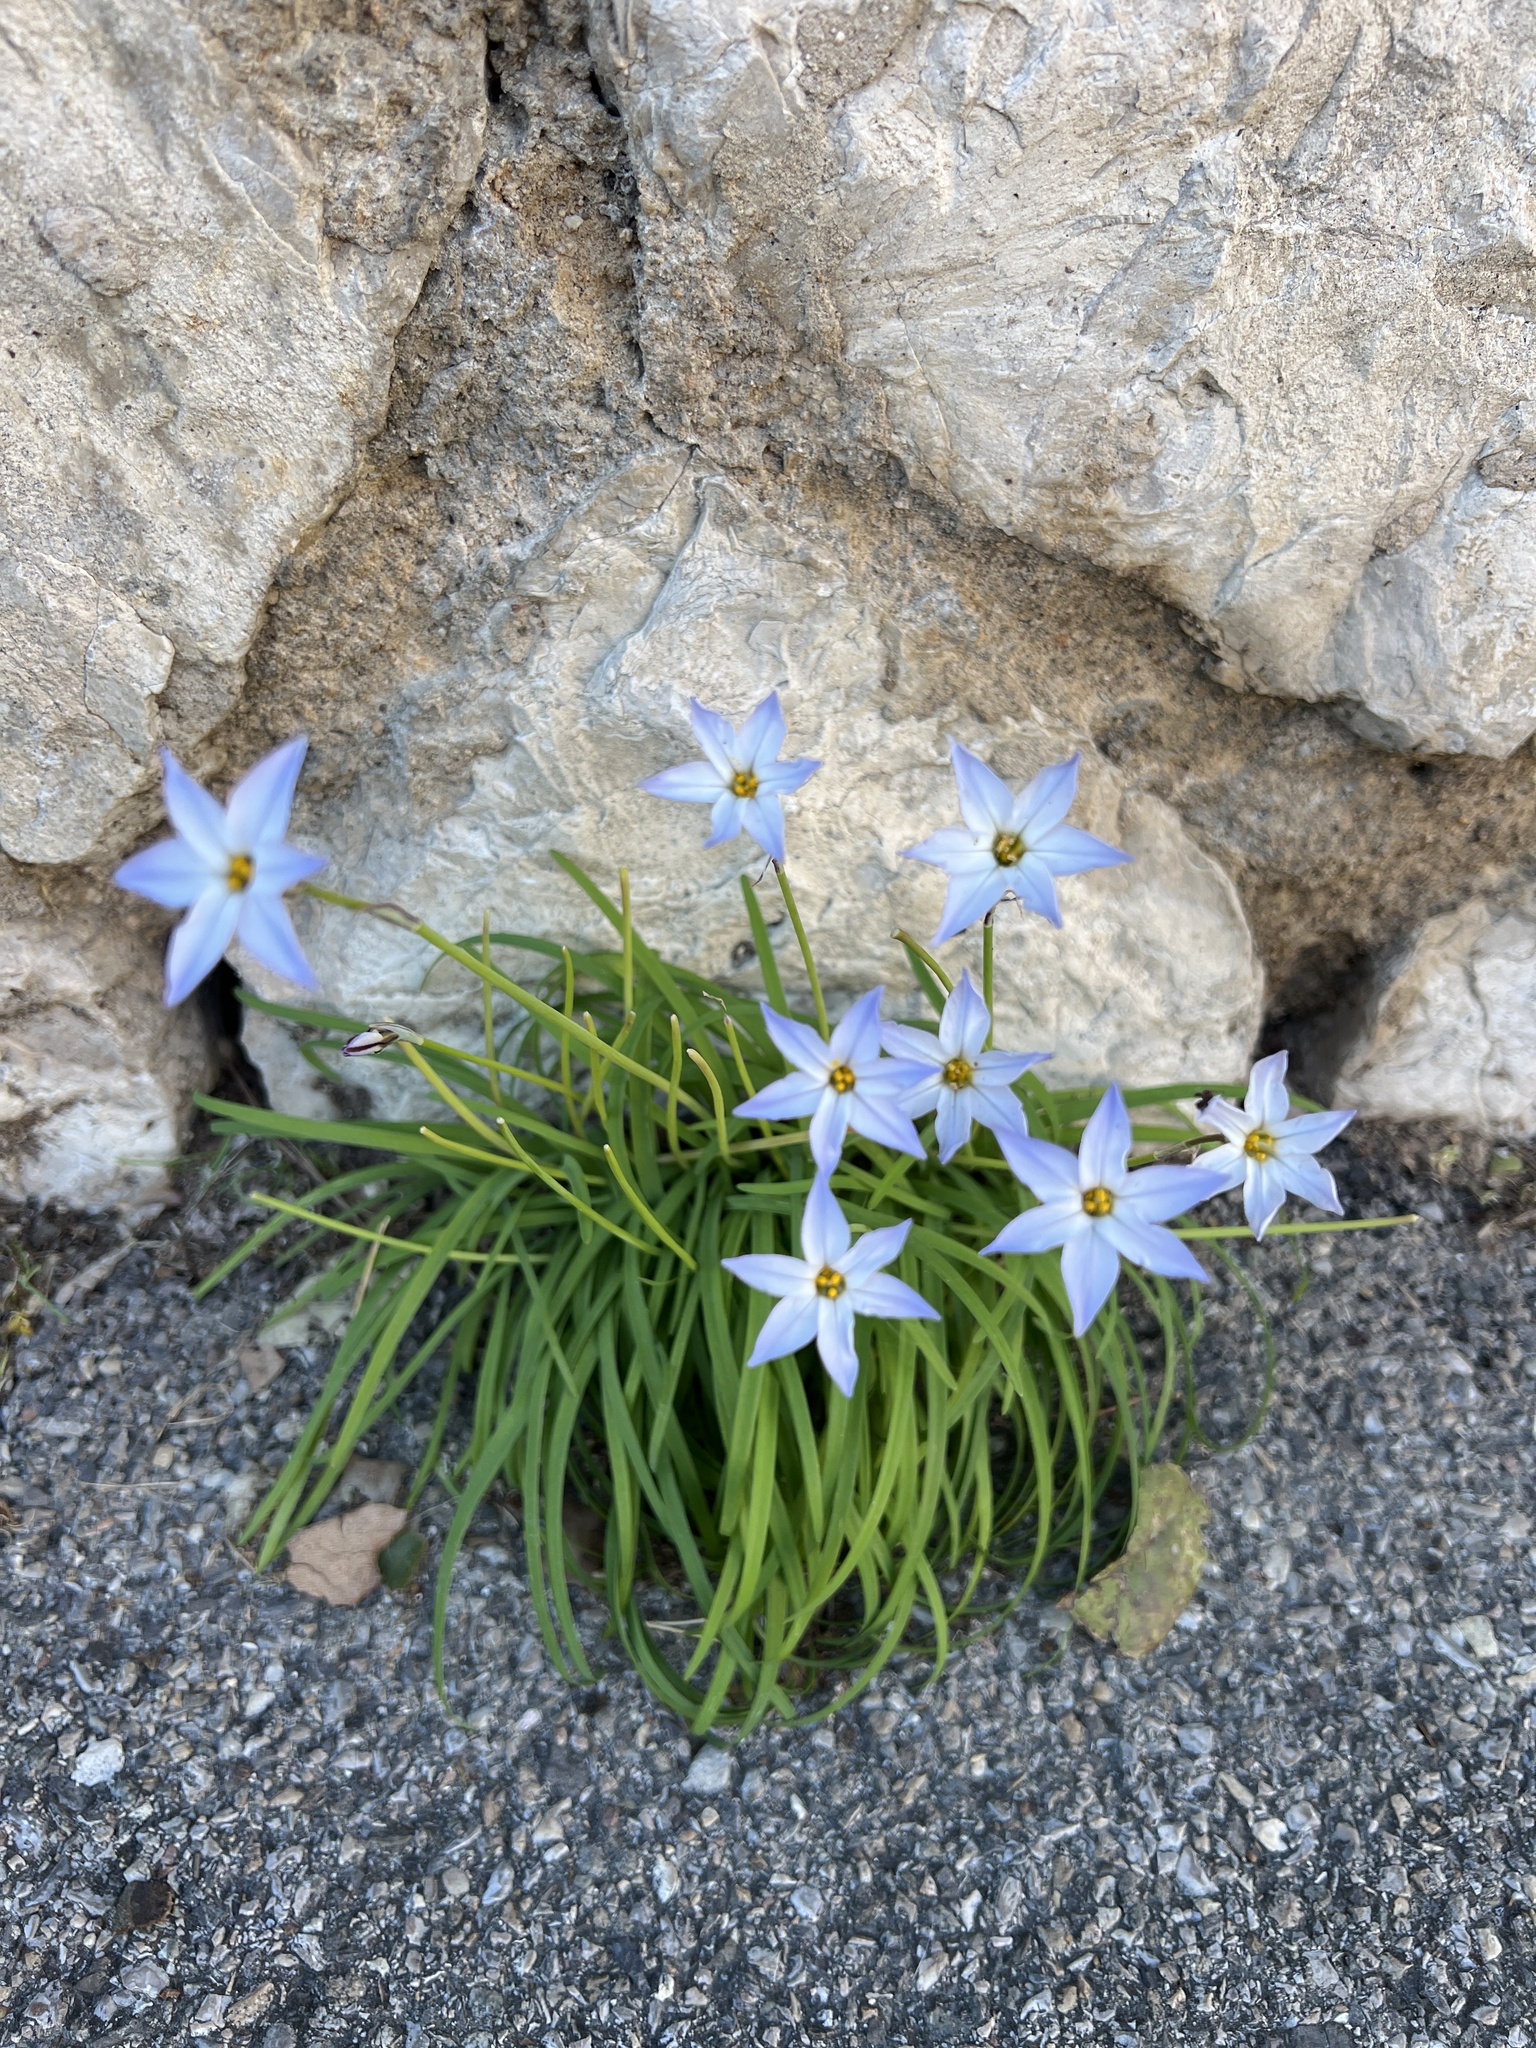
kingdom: Plantae
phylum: Tracheophyta
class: Liliopsida
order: Asparagales
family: Amaryllidaceae
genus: Ipheion
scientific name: Ipheion uniflorum
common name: Spring starflower
